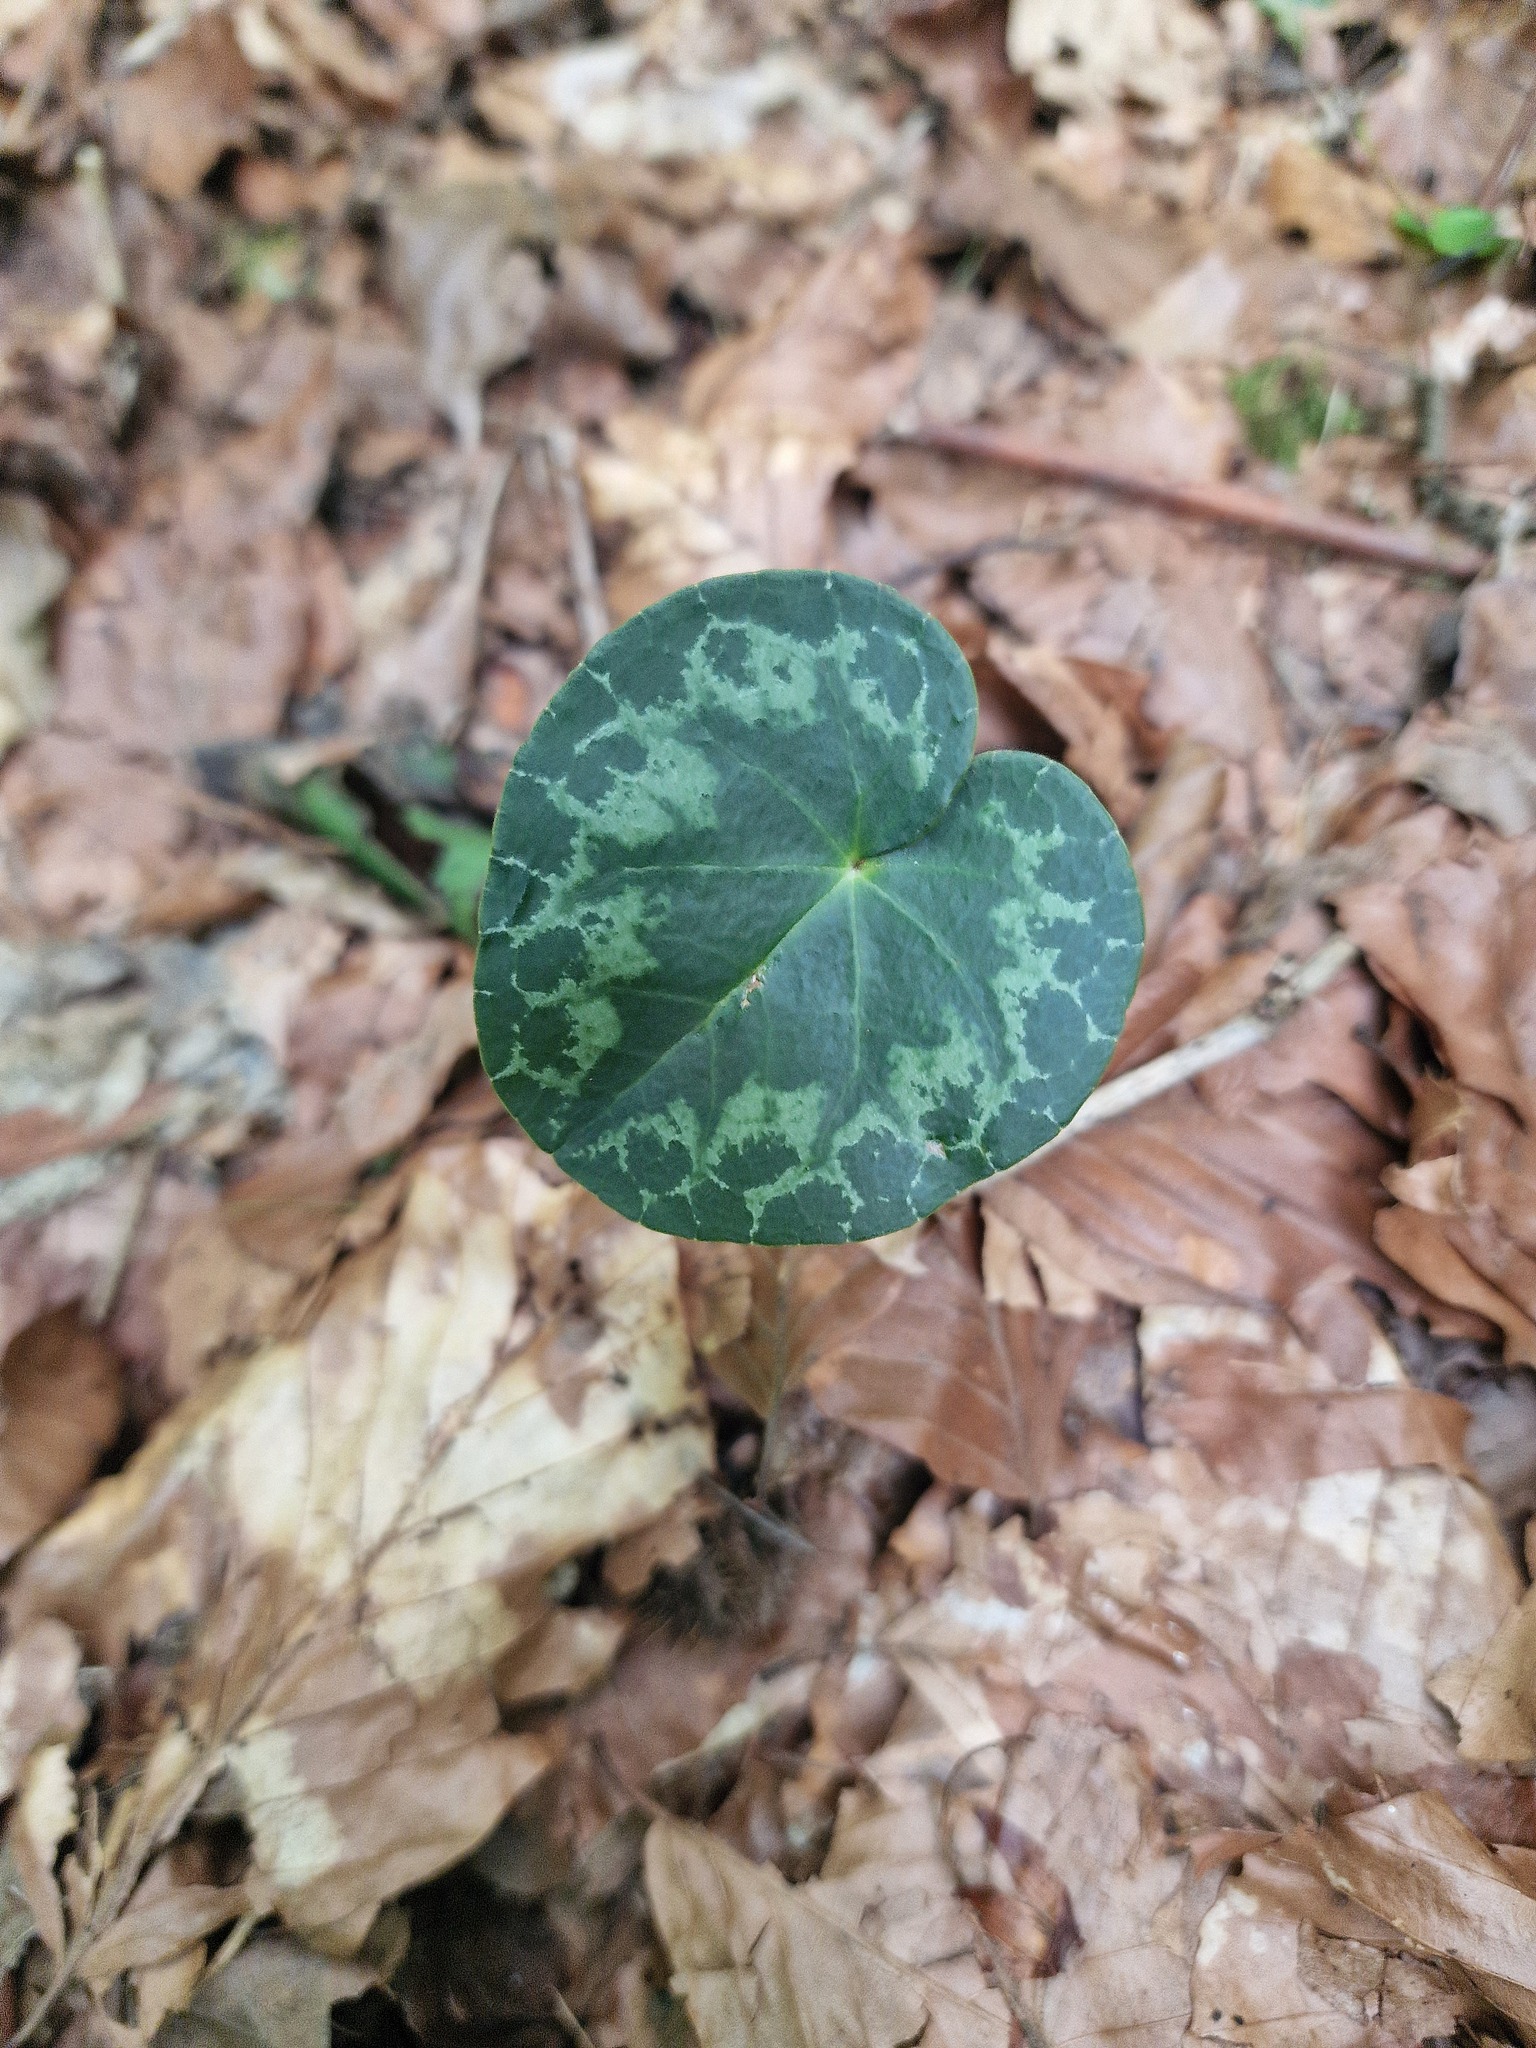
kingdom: Plantae
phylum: Tracheophyta
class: Magnoliopsida
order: Ericales
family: Primulaceae
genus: Cyclamen
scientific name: Cyclamen purpurascens
